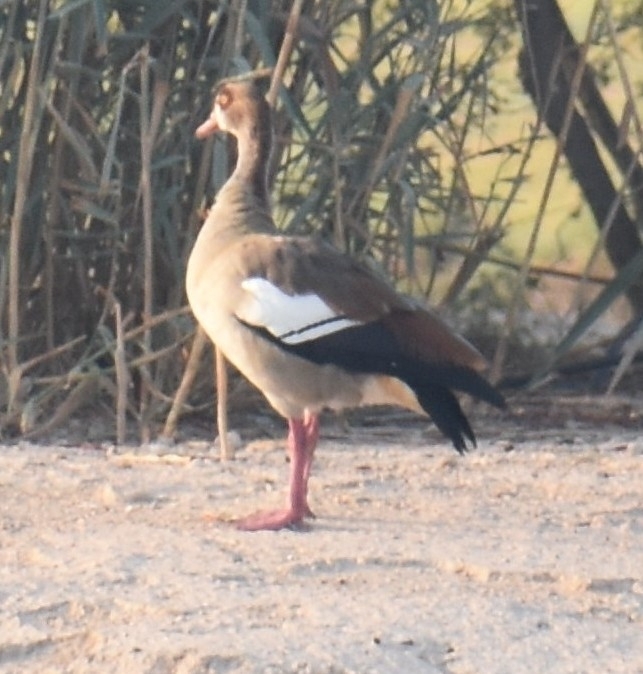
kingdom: Animalia
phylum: Chordata
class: Aves
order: Anseriformes
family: Anatidae
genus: Alopochen
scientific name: Alopochen aegyptiaca
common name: Egyptian goose
